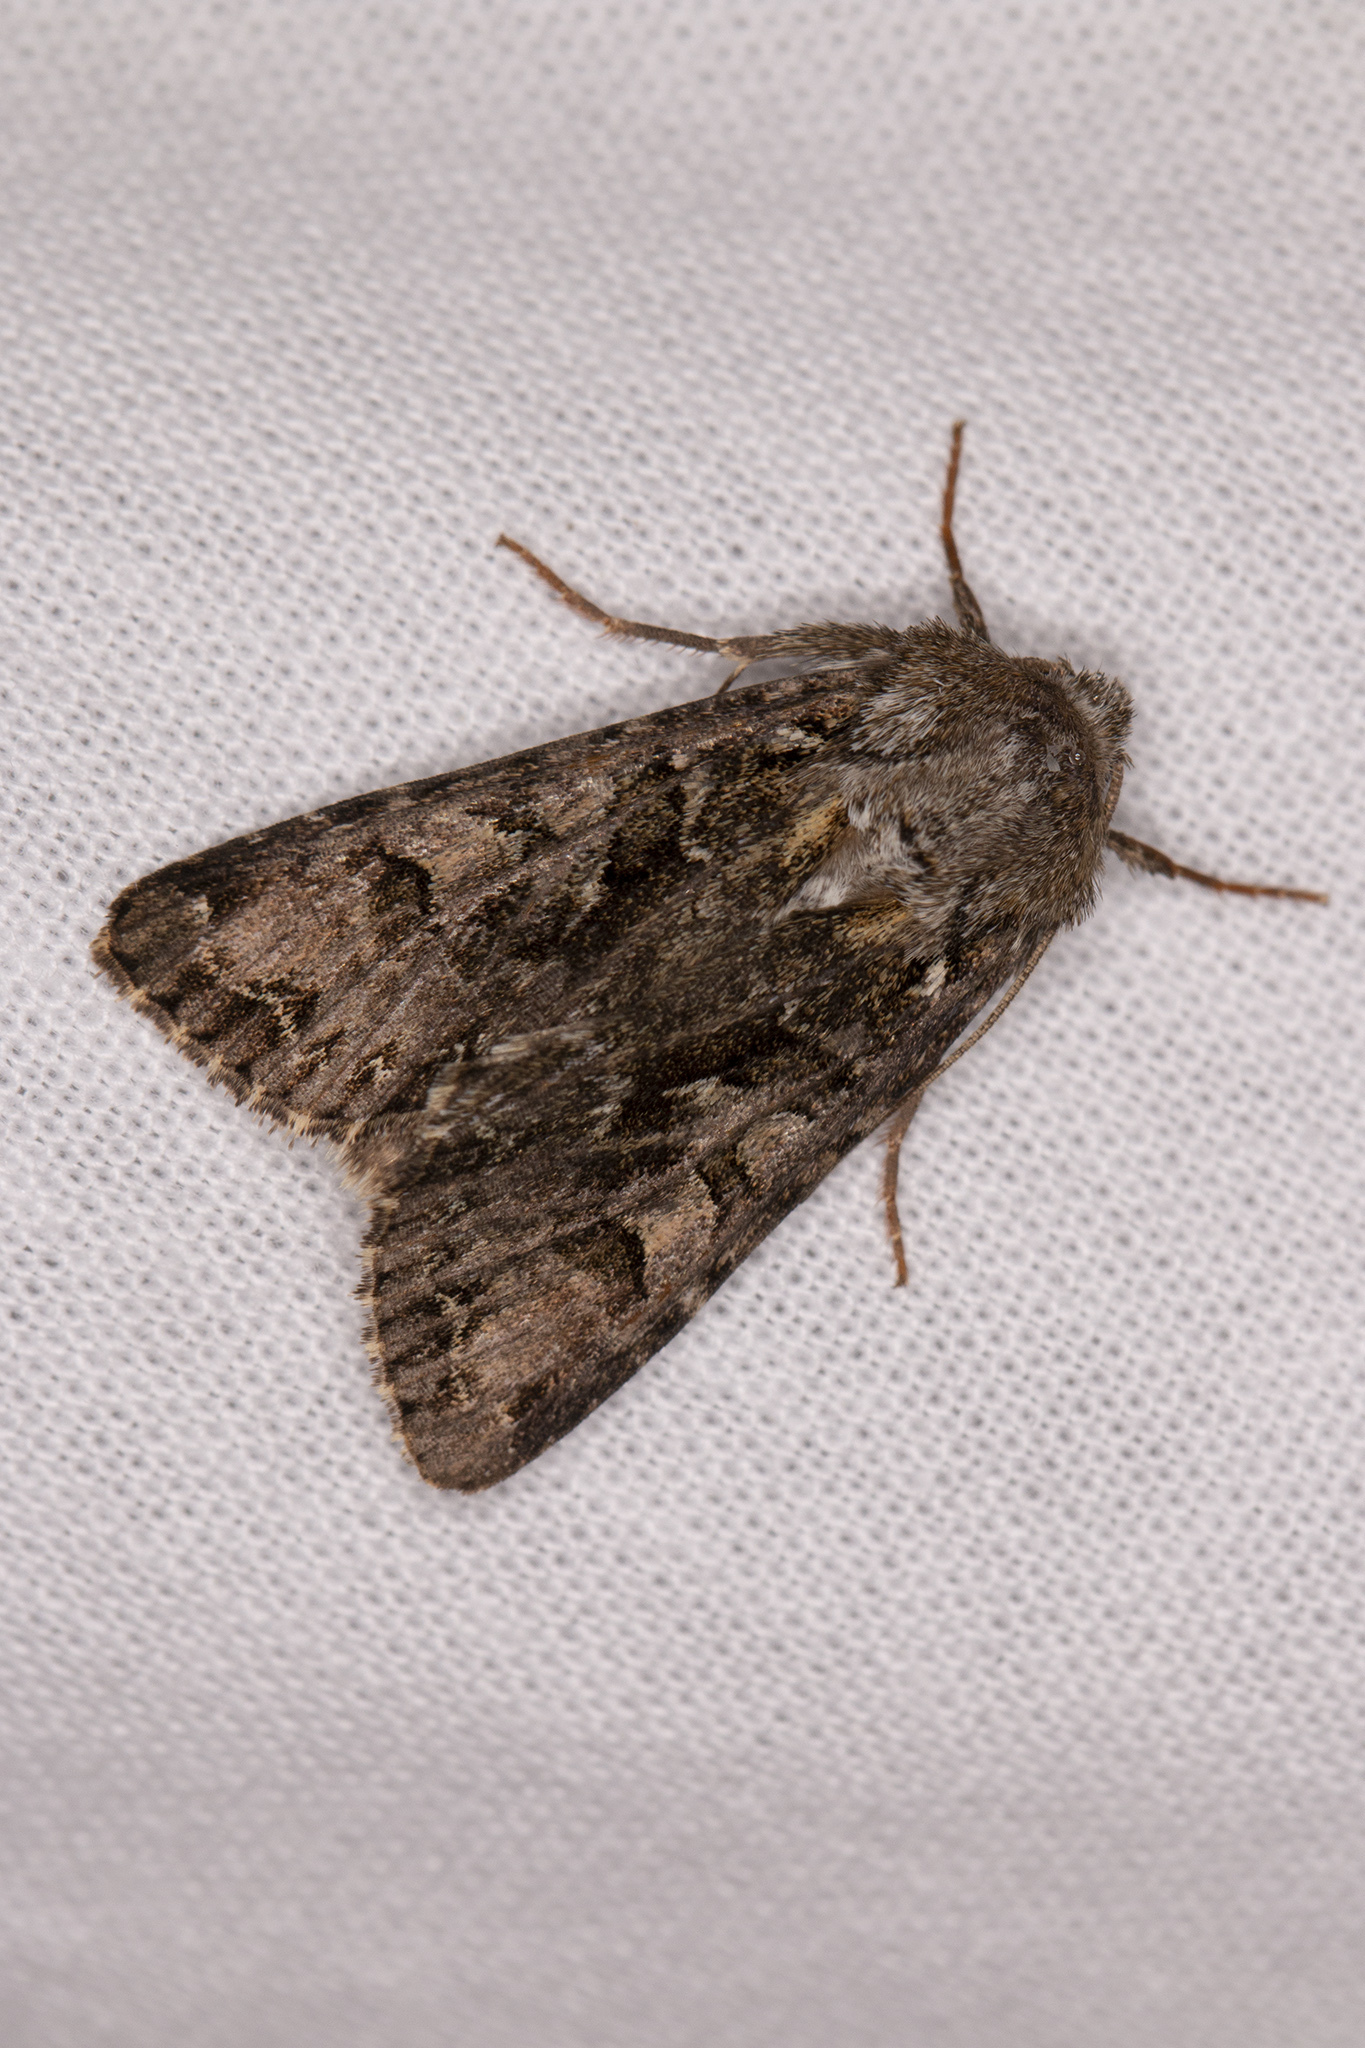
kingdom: Animalia
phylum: Arthropoda
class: Insecta
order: Lepidoptera
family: Noctuidae
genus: Hada
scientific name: Hada plebeja
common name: Shears
